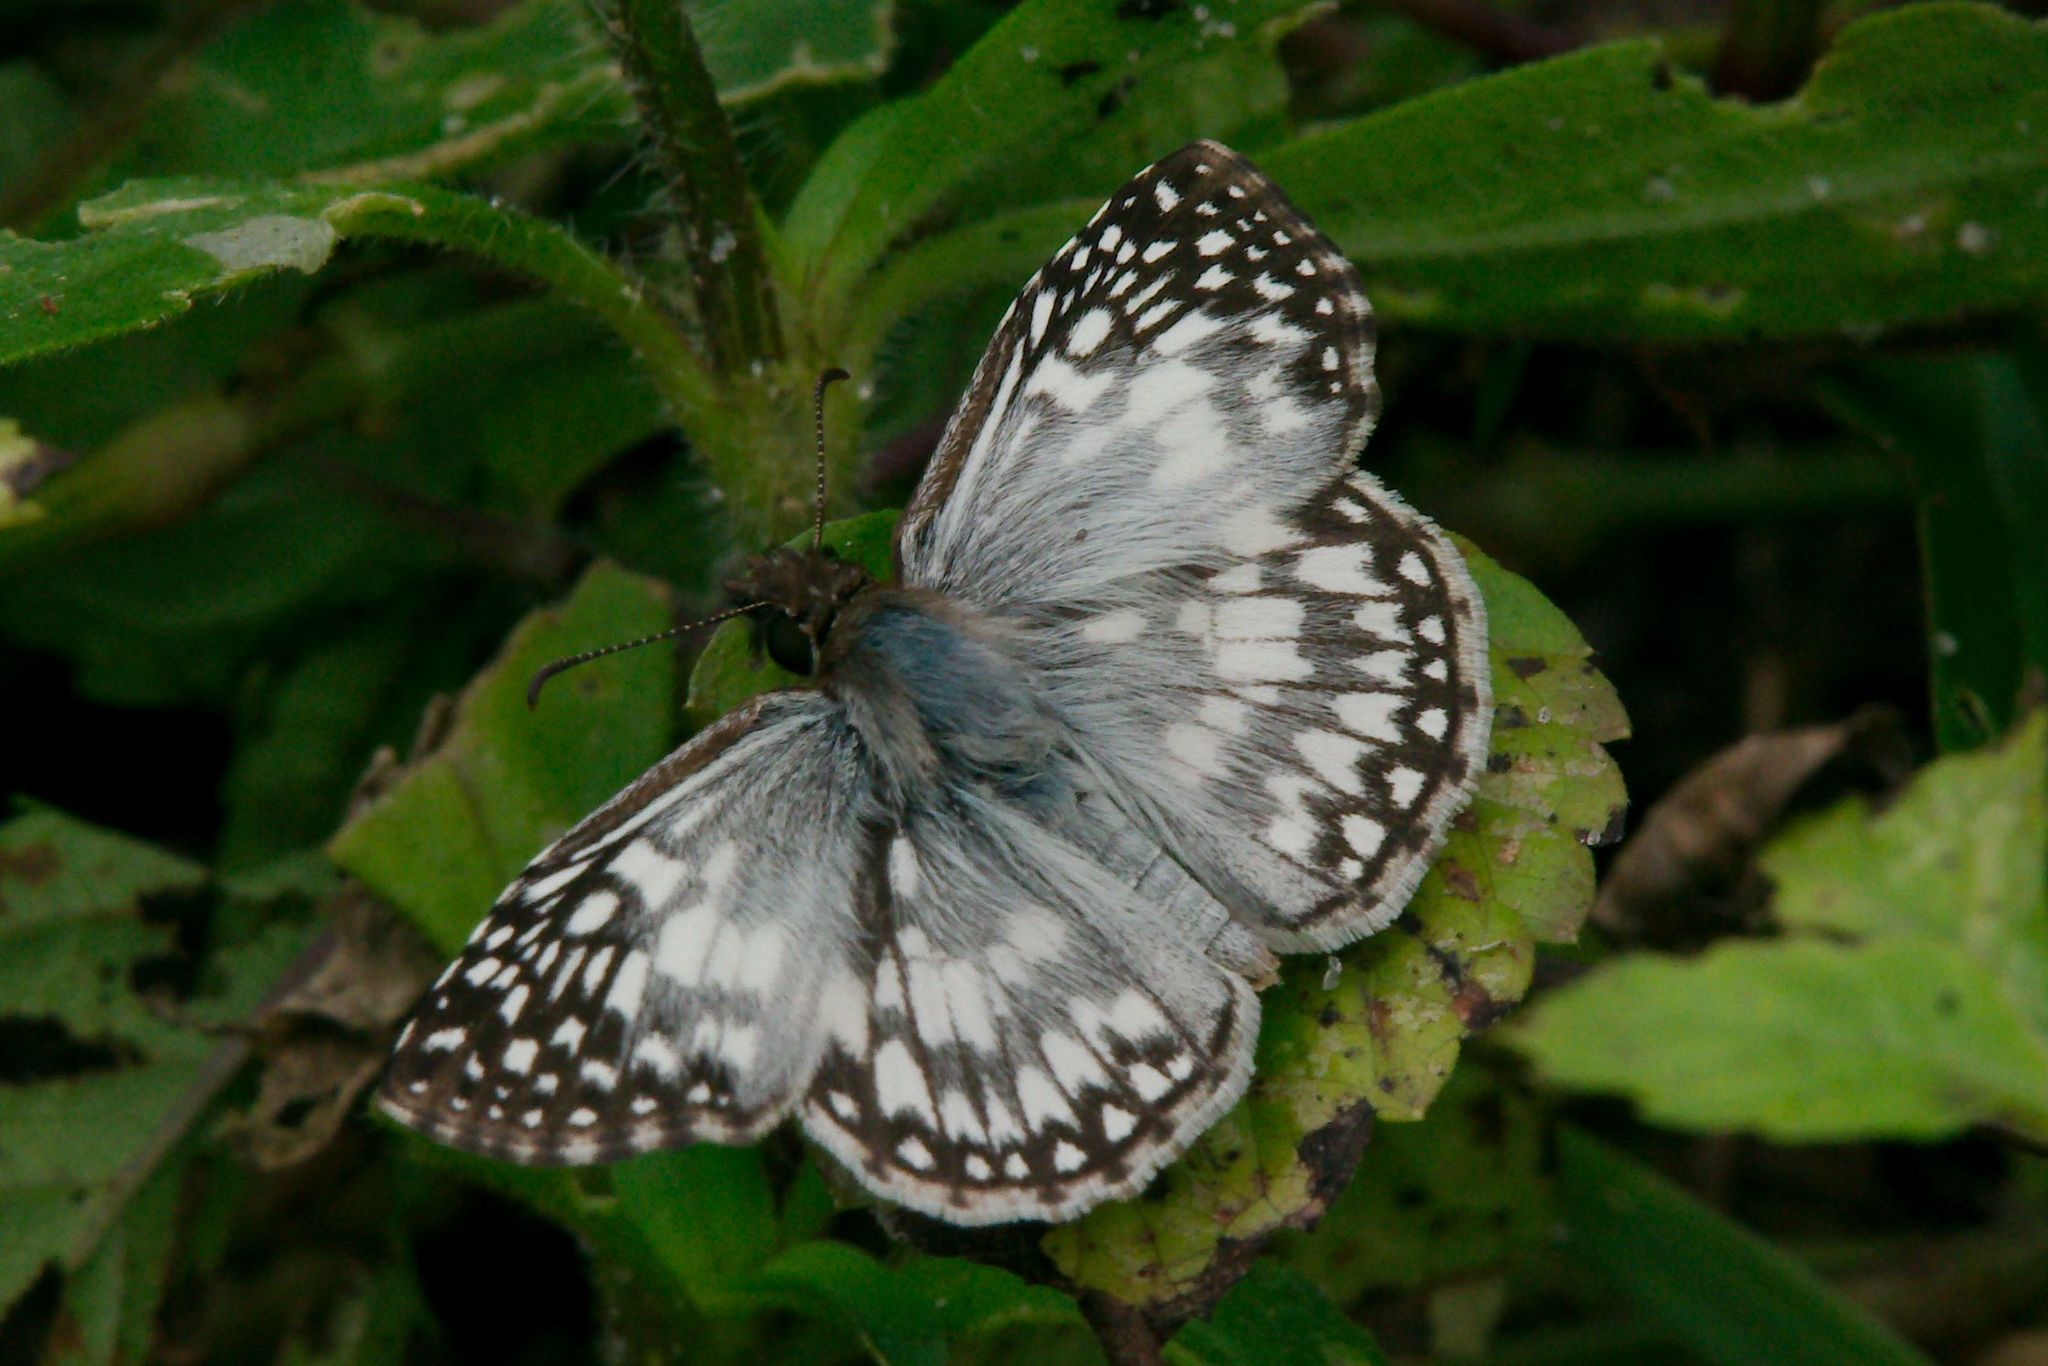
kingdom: Animalia
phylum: Arthropoda
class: Insecta
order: Lepidoptera
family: Hesperiidae
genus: Pyrgus
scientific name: Pyrgus oileus
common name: Tropical checkered-skipper
